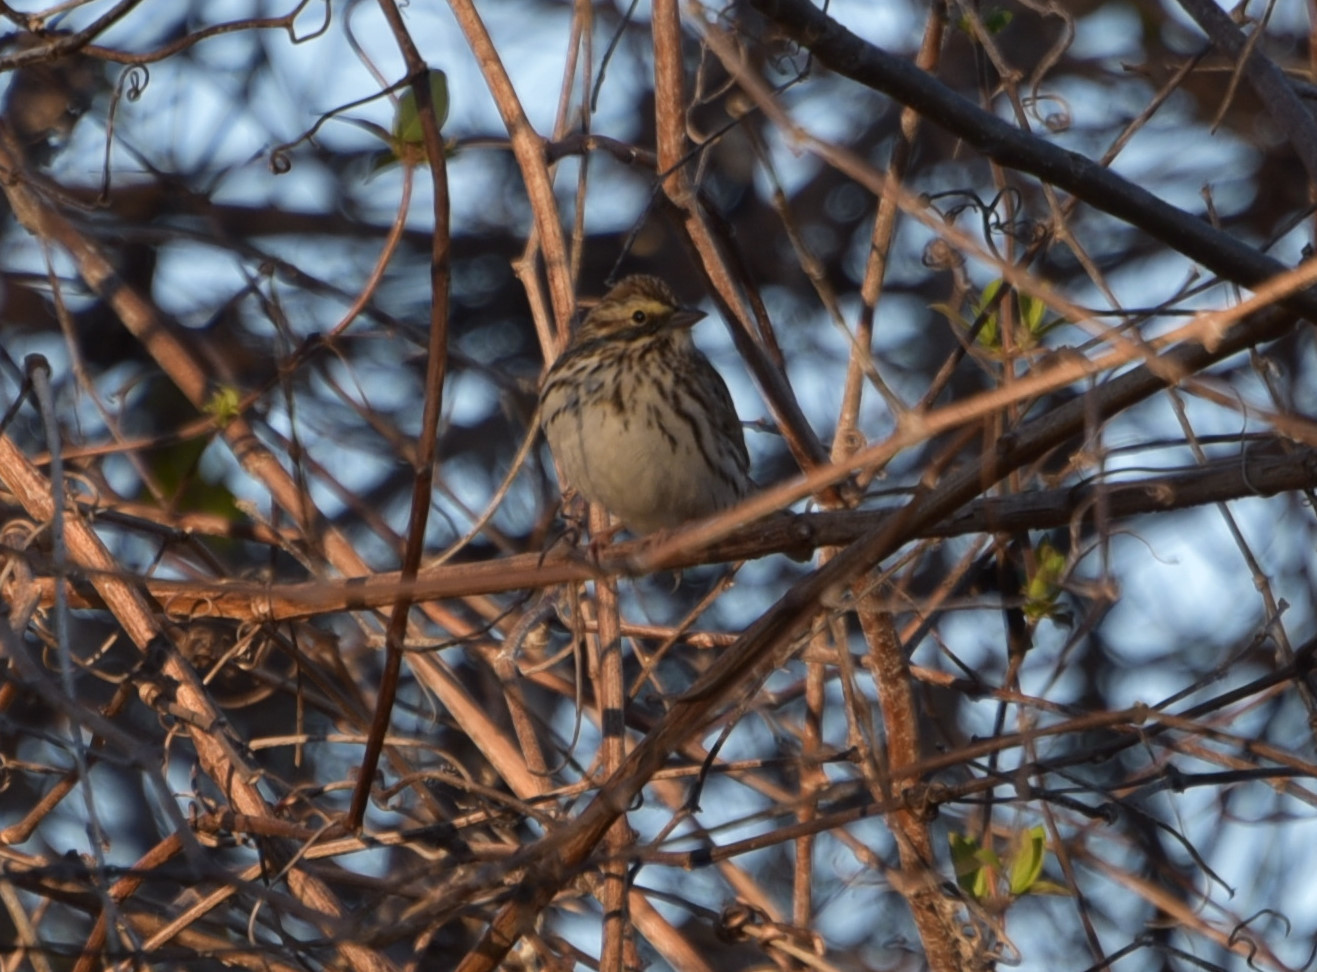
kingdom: Animalia
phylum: Chordata
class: Aves
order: Passeriformes
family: Passerellidae
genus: Passerculus
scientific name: Passerculus sandwichensis
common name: Savannah sparrow
